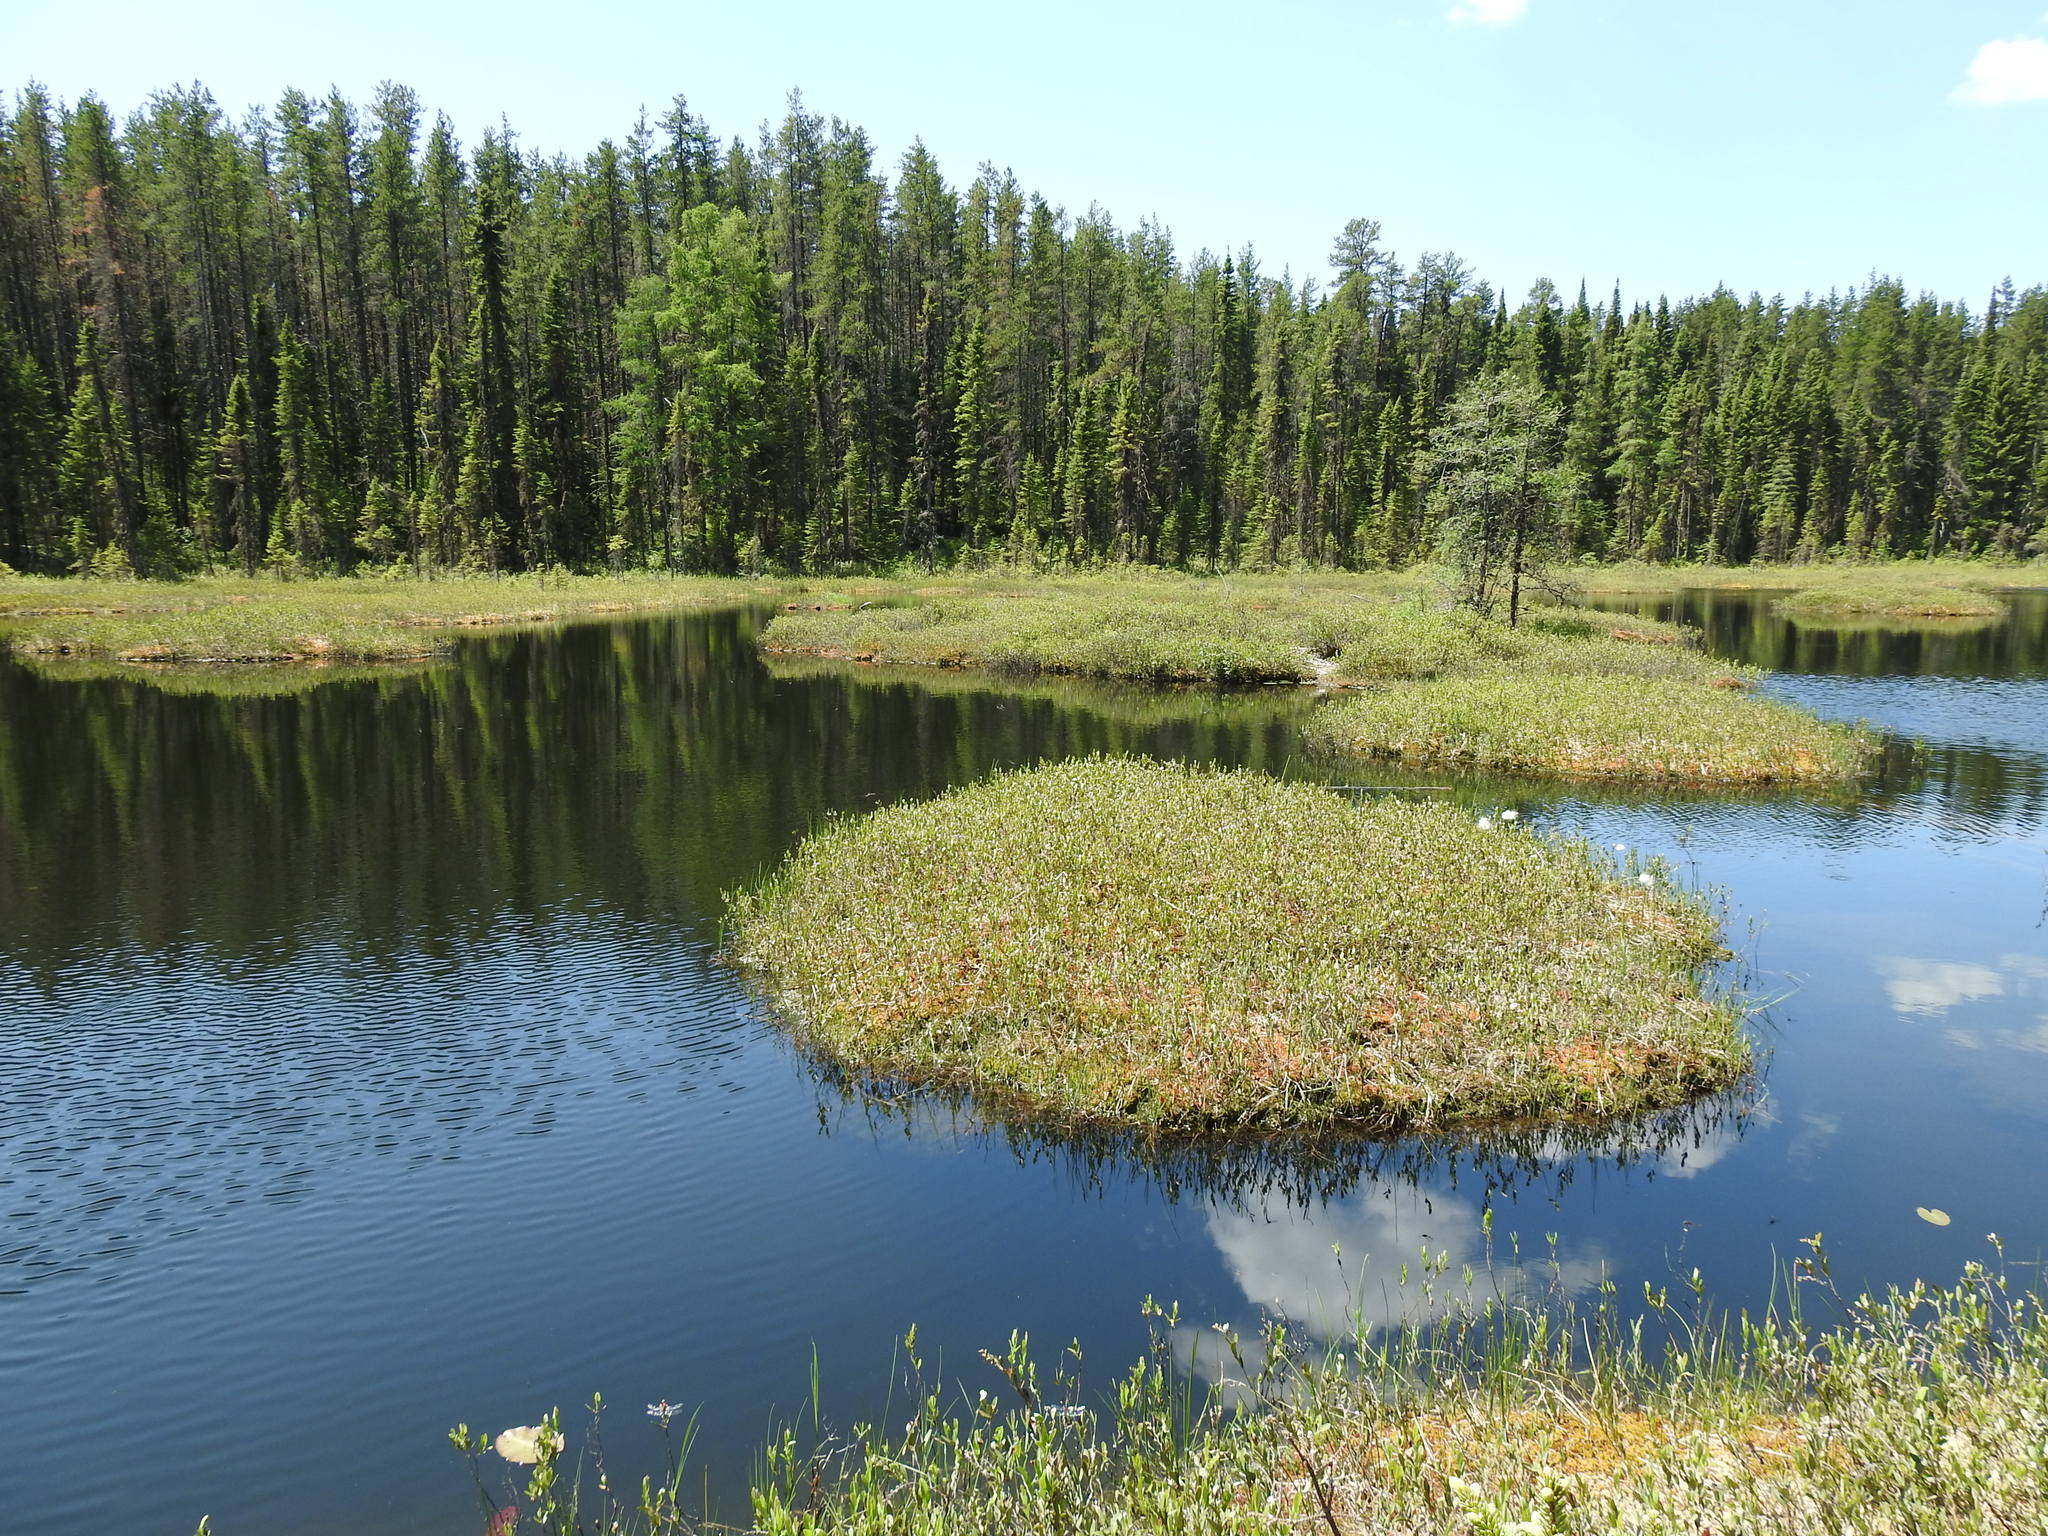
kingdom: Plantae
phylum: Tracheophyta
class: Pinopsida
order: Pinales
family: Pinaceae
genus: Pinus
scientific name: Pinus banksiana
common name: Jack pine
